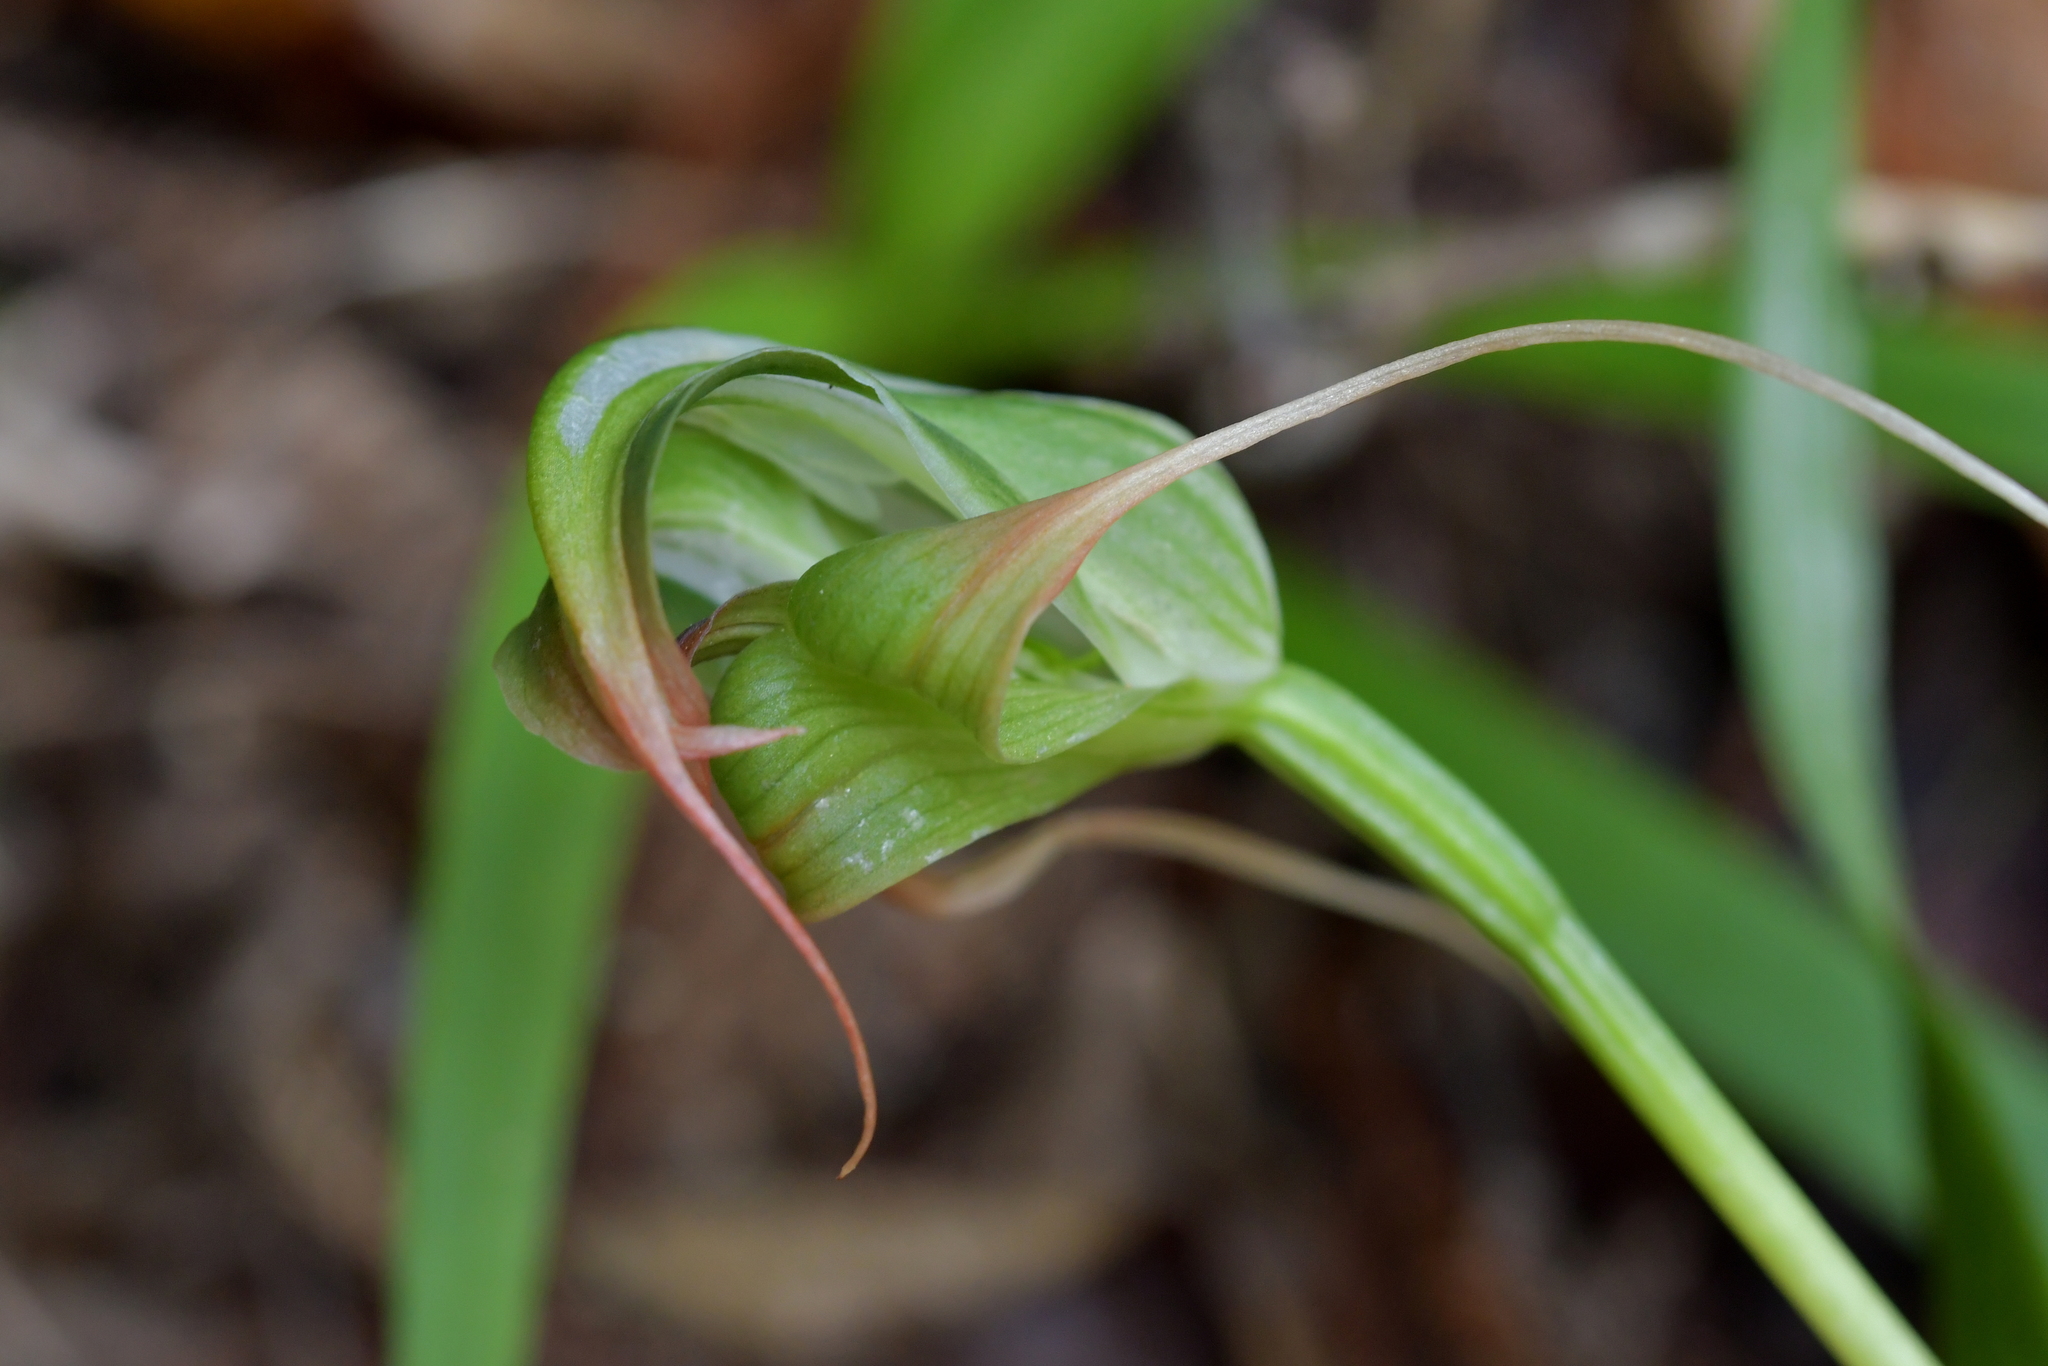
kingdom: Plantae
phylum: Tracheophyta
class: Liliopsida
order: Asparagales
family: Orchidaceae
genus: Pterostylis
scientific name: Pterostylis patens
